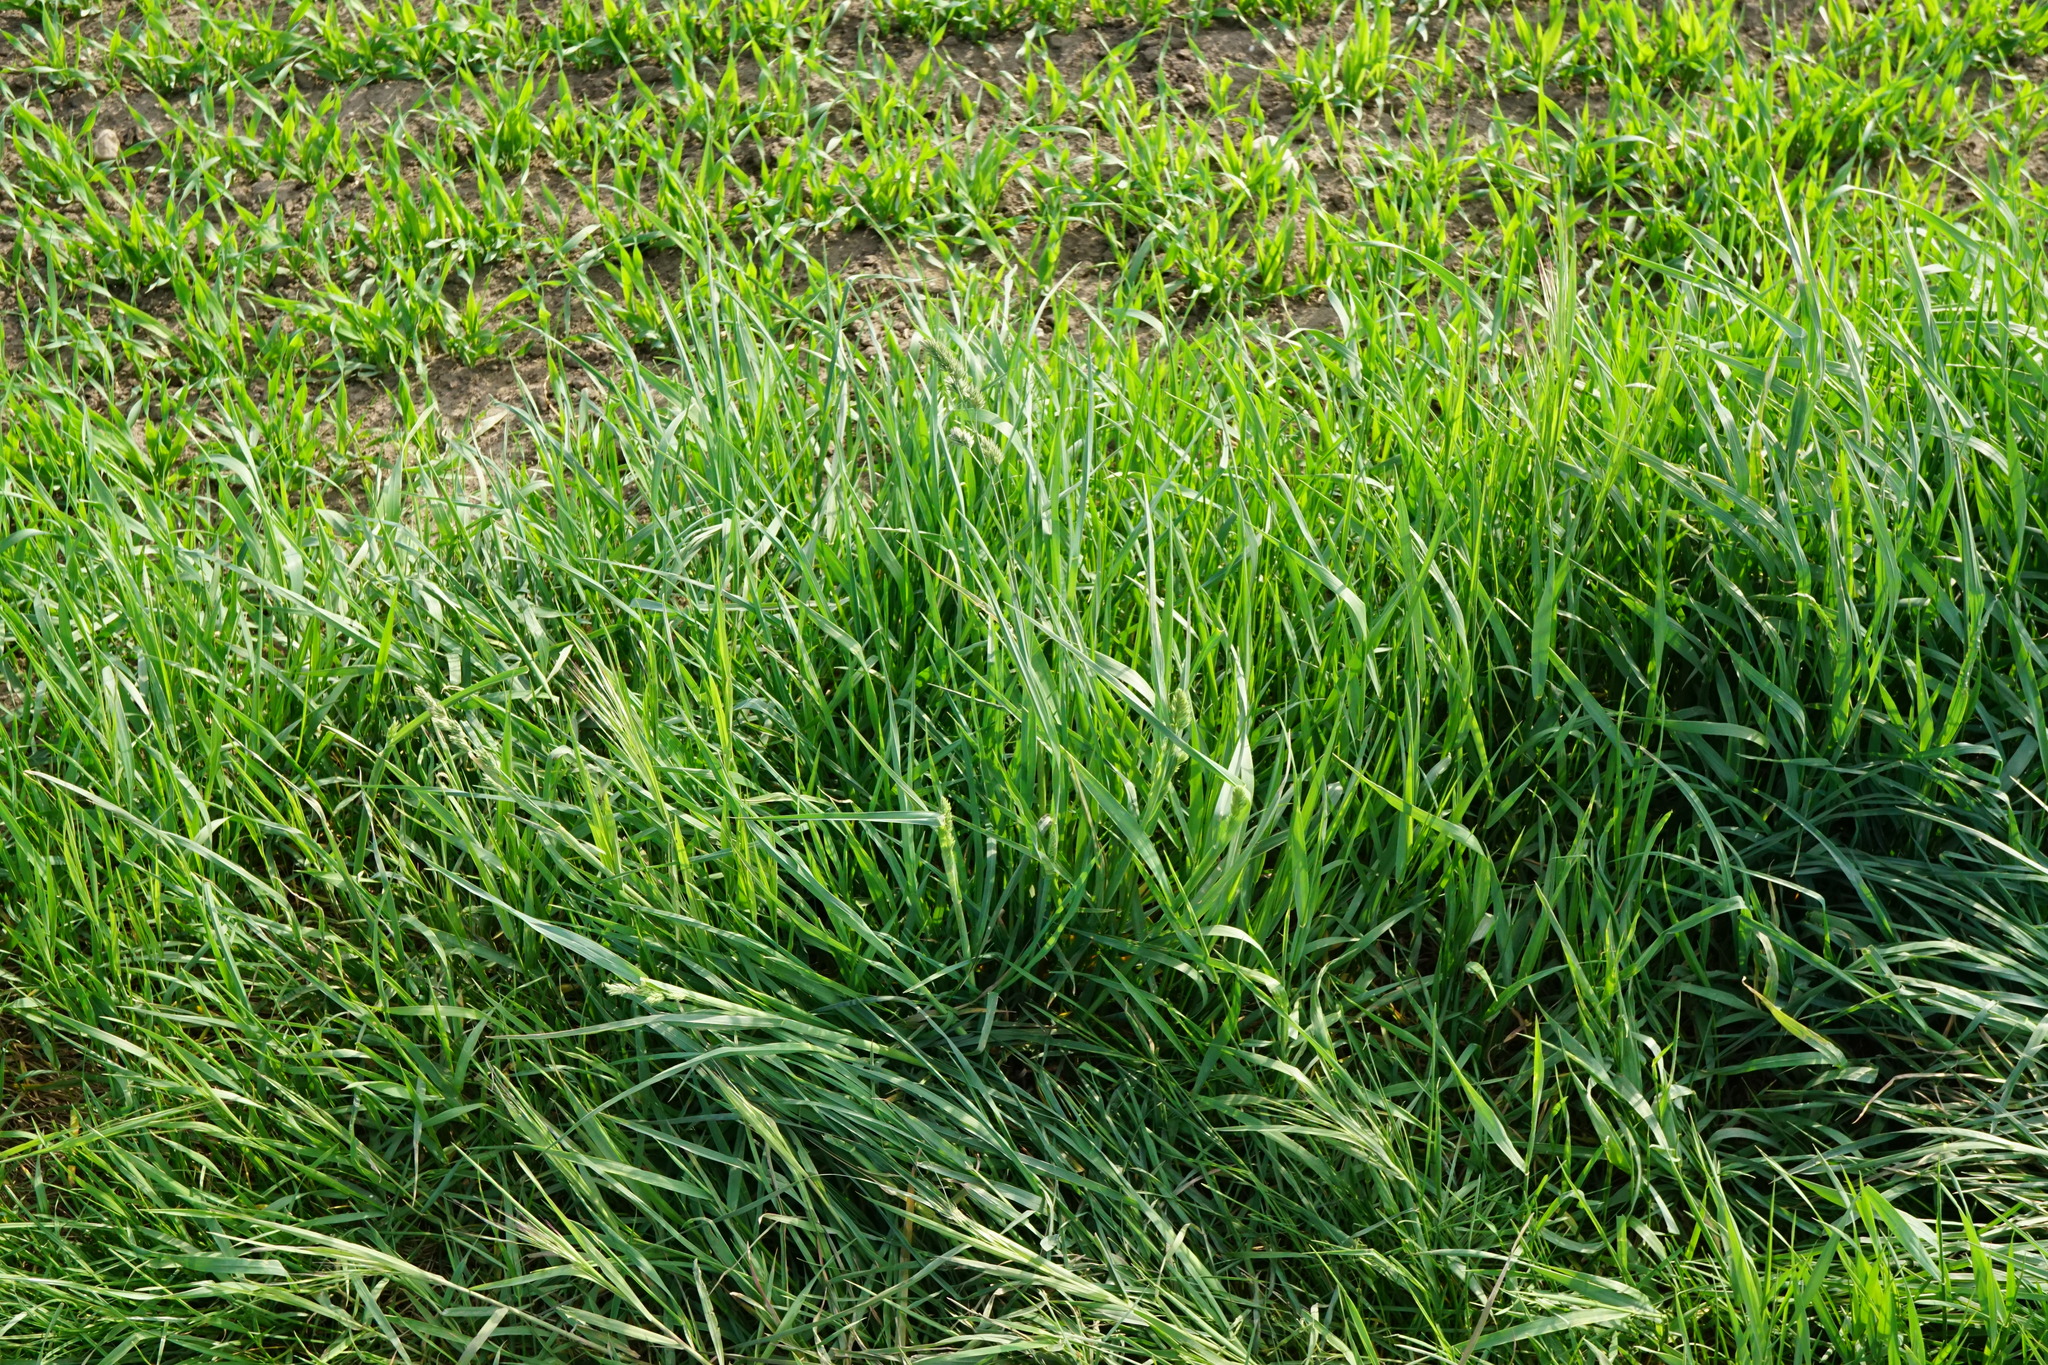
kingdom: Plantae
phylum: Tracheophyta
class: Liliopsida
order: Poales
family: Poaceae
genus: Dactylis
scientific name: Dactylis glomerata
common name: Orchardgrass
